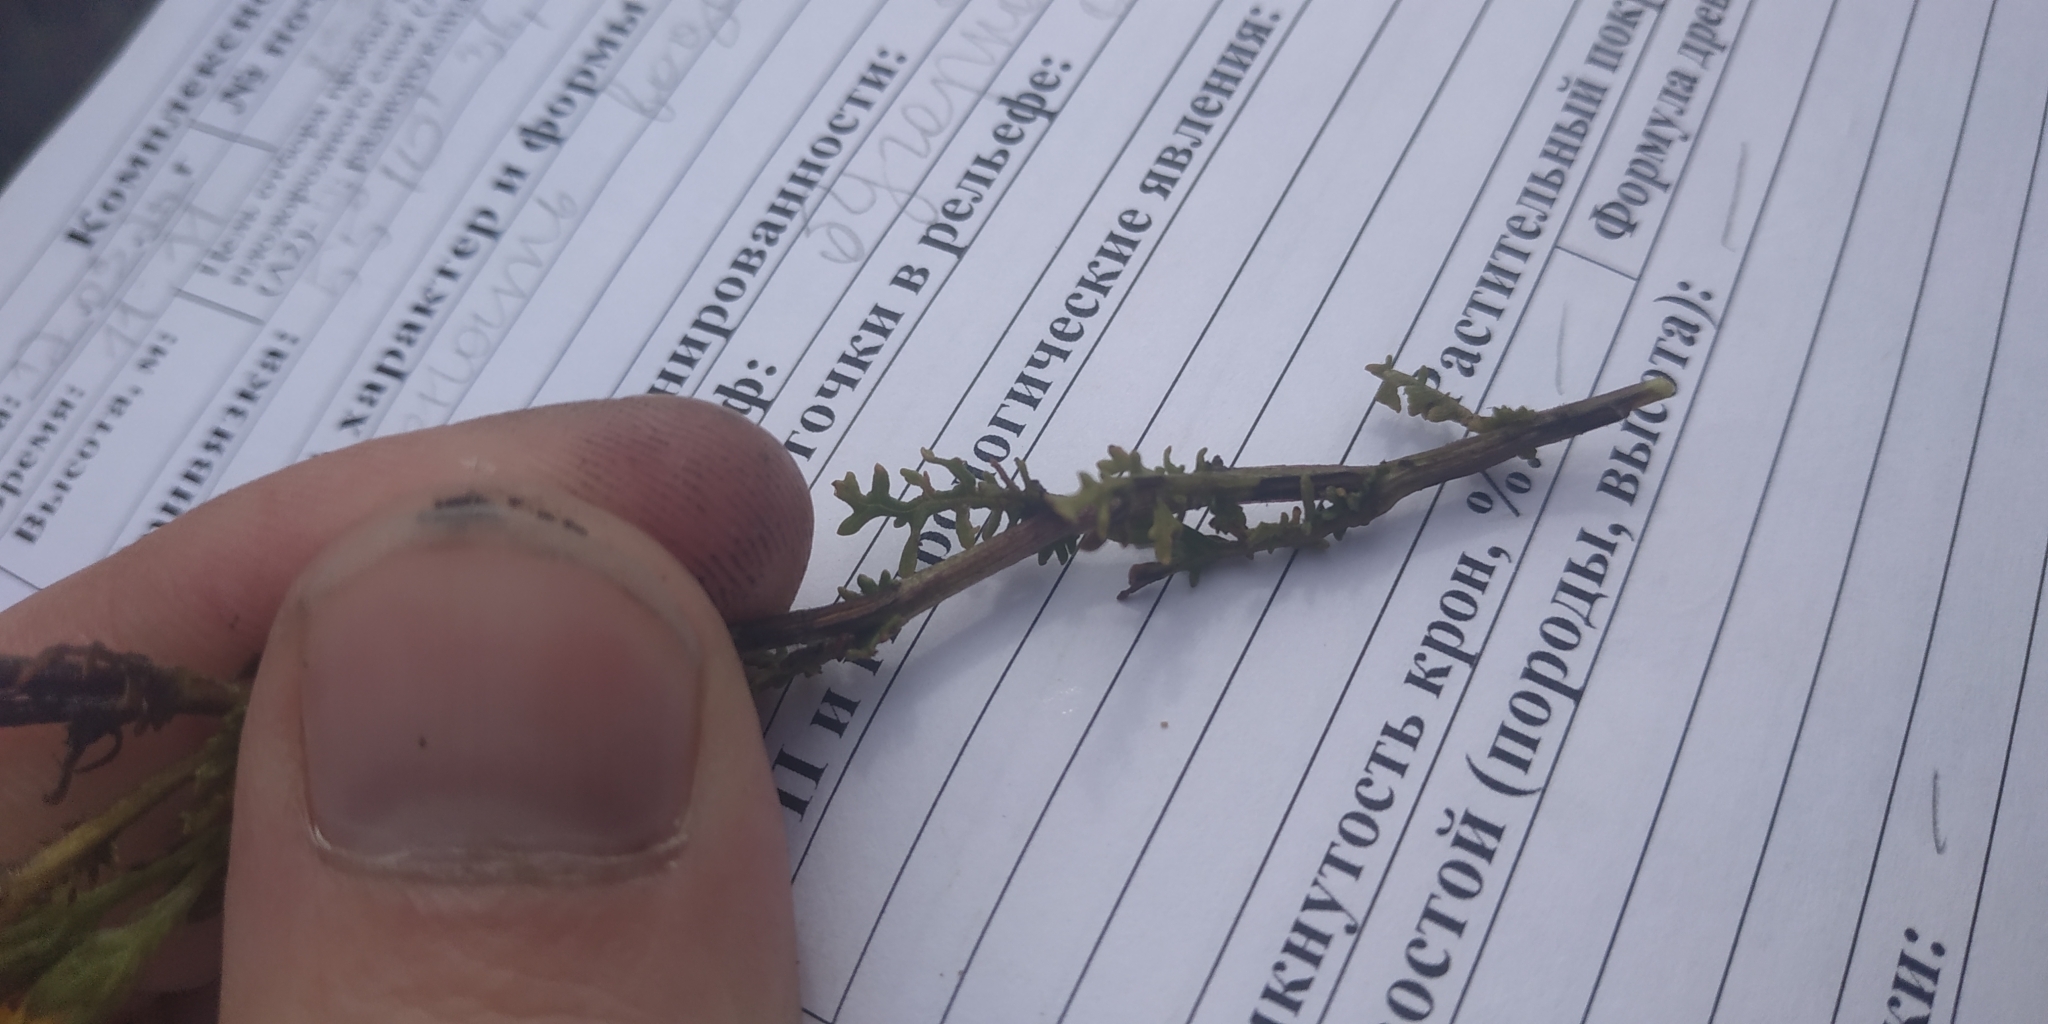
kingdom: Plantae
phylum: Tracheophyta
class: Magnoliopsida
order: Asterales
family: Asteraceae
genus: Jacobaea
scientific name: Jacobaea erucifolia
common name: Hoary ragwort
